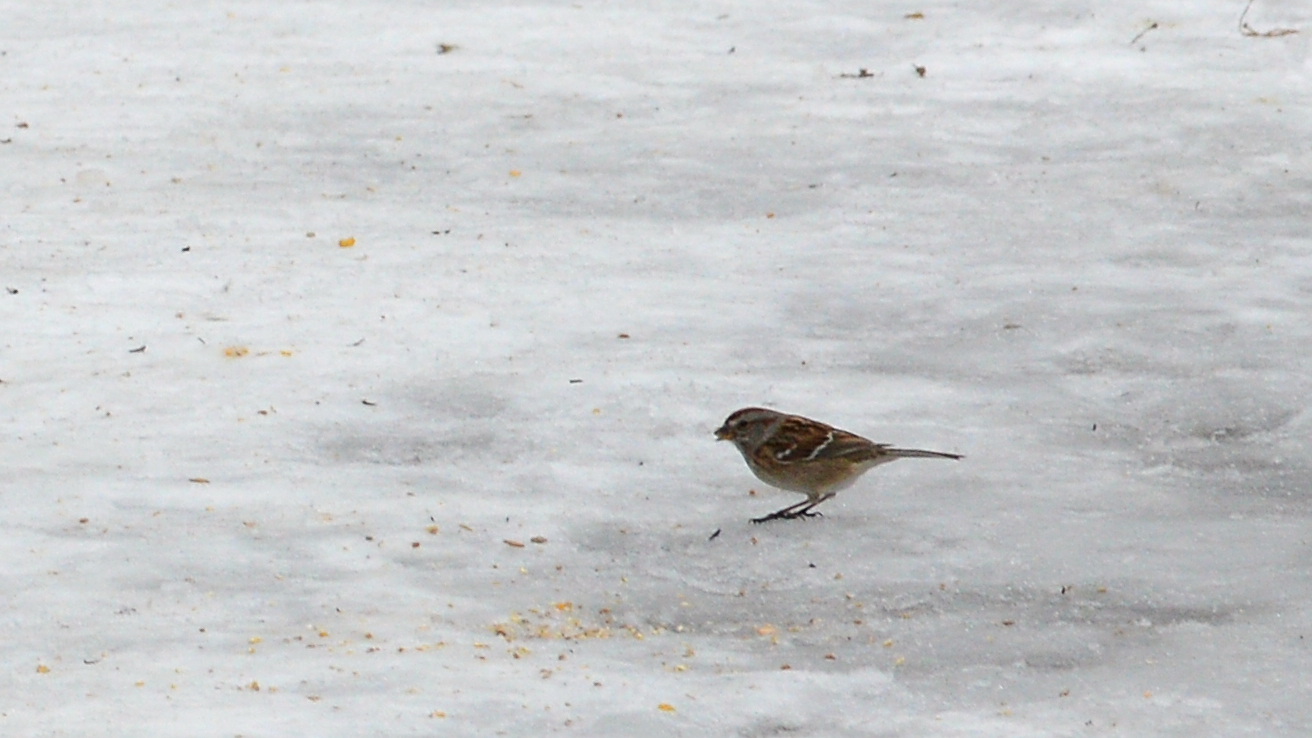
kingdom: Animalia
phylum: Chordata
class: Aves
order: Passeriformes
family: Passerellidae
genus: Spizelloides
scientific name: Spizelloides arborea
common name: American tree sparrow
